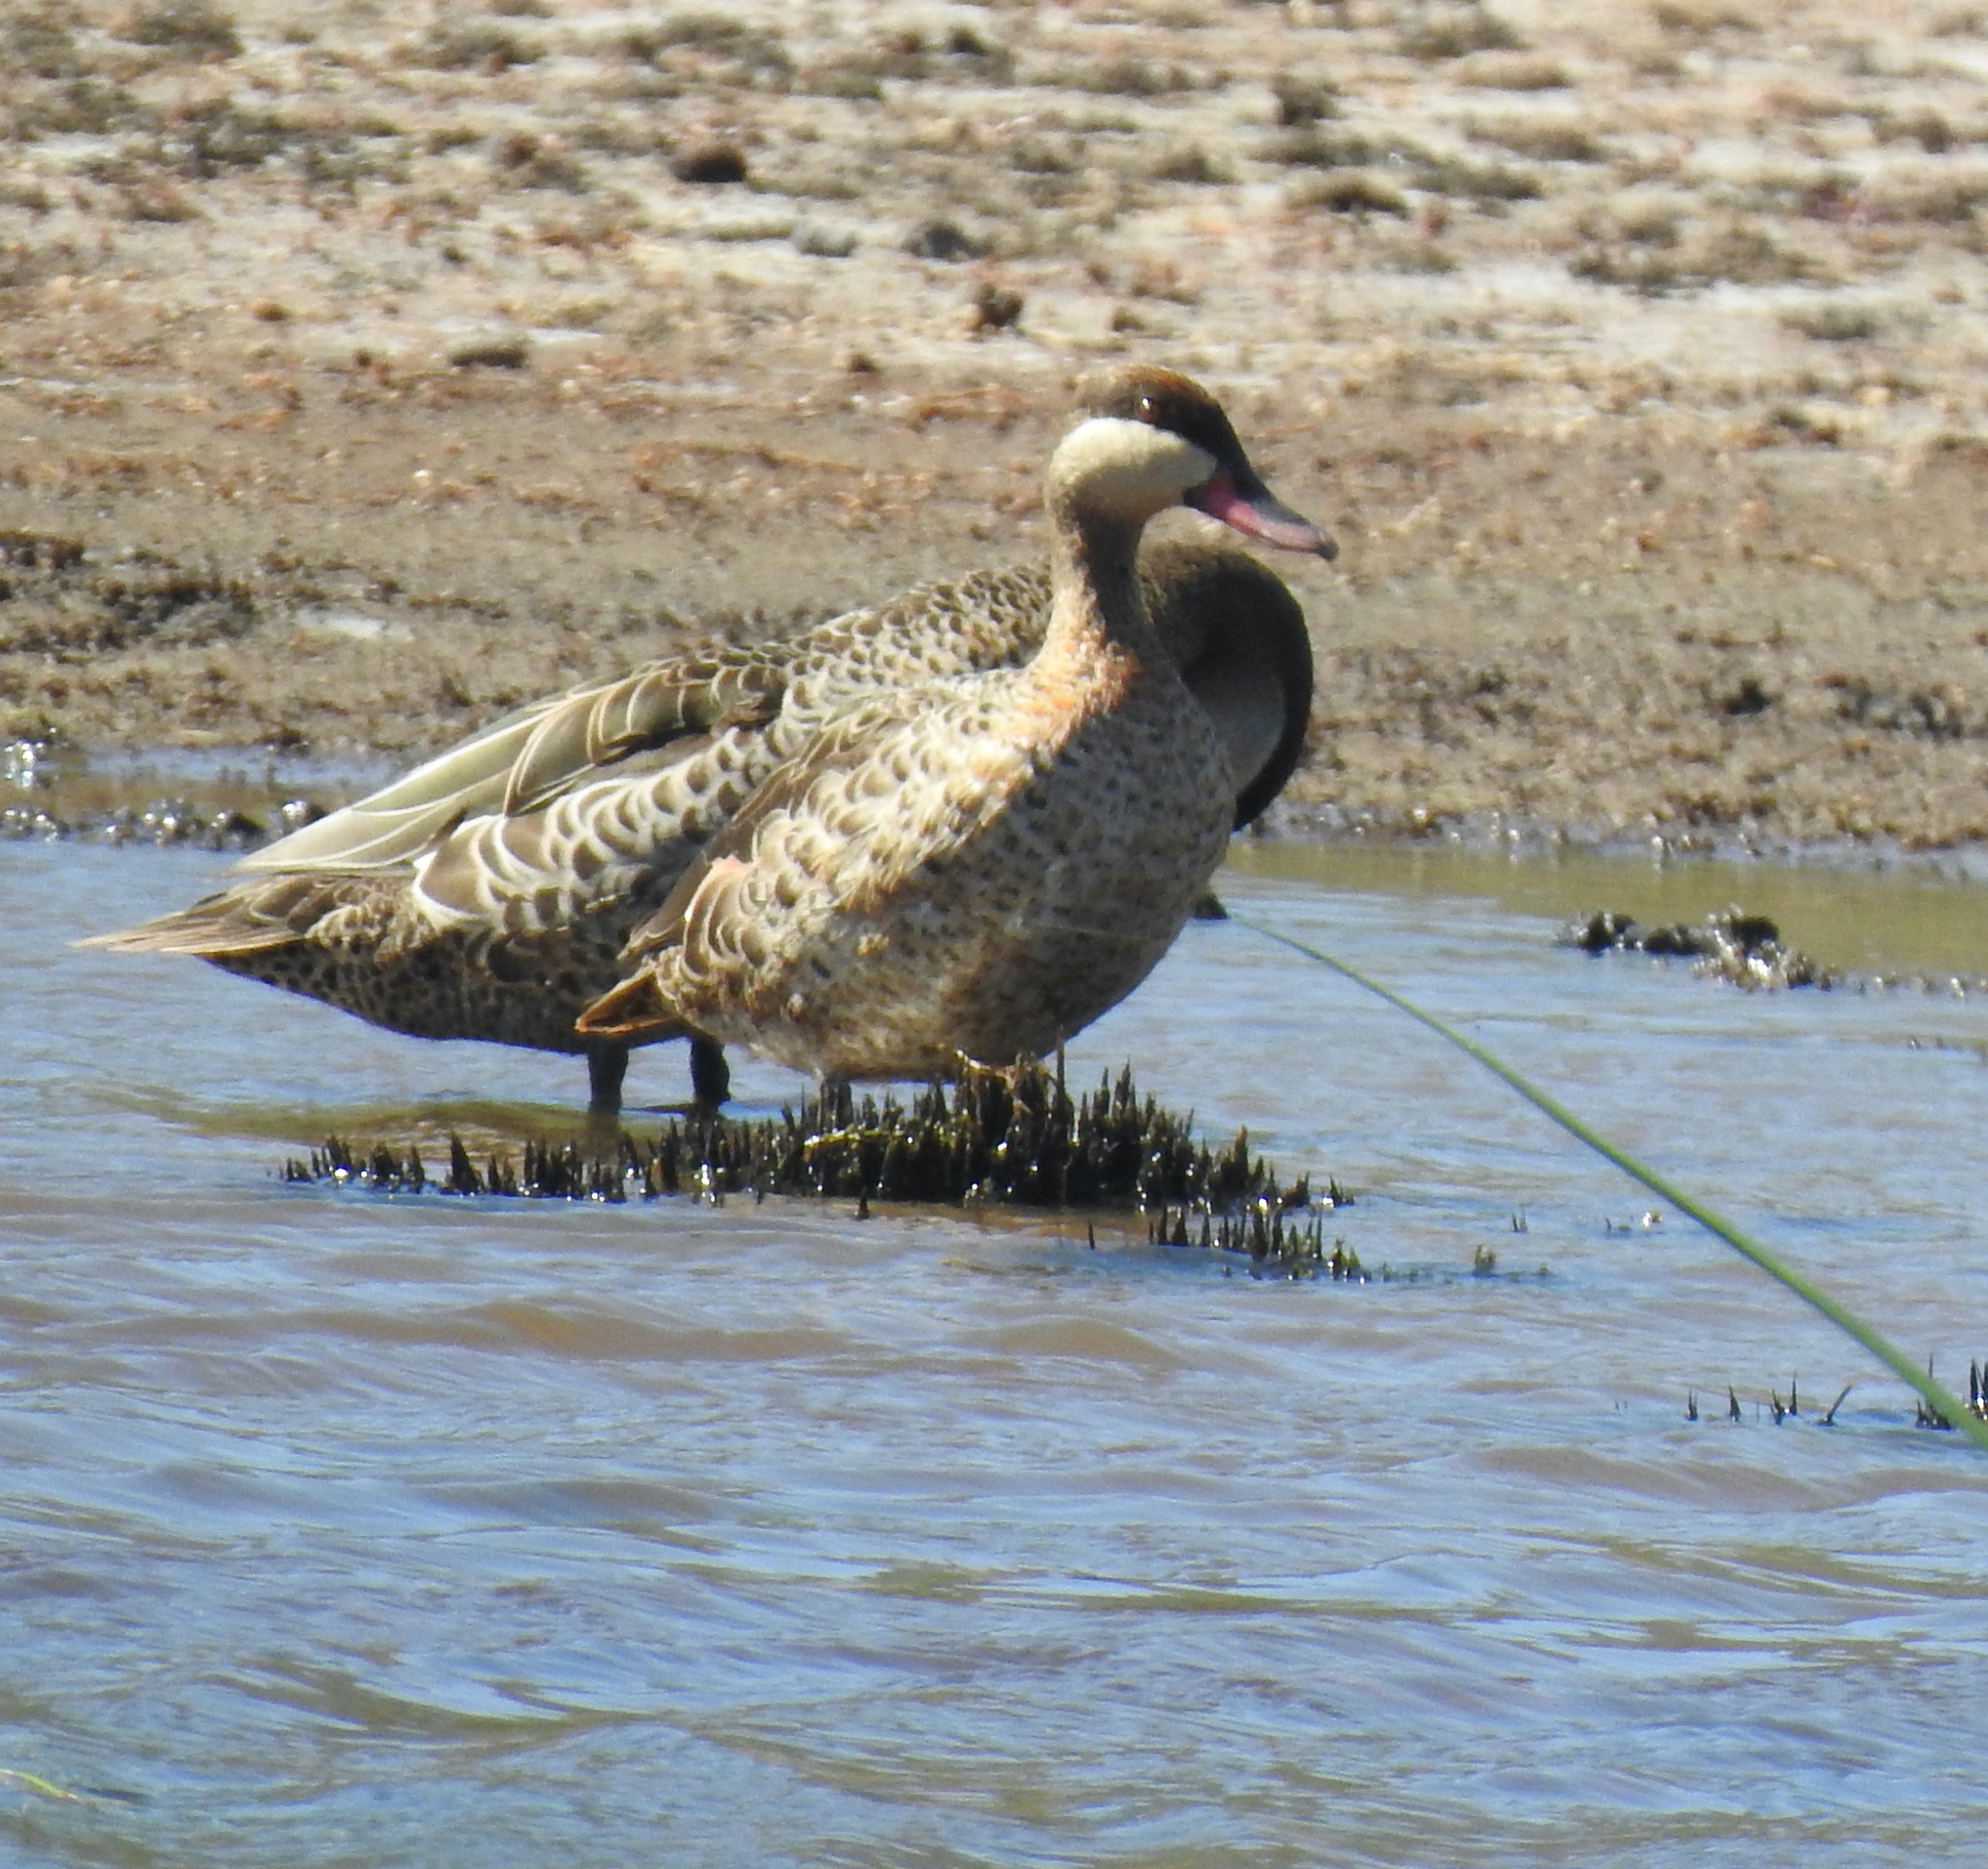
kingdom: Animalia
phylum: Chordata
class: Aves
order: Anseriformes
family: Anatidae
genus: Anas
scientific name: Anas erythrorhyncha
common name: Red-billed teal
